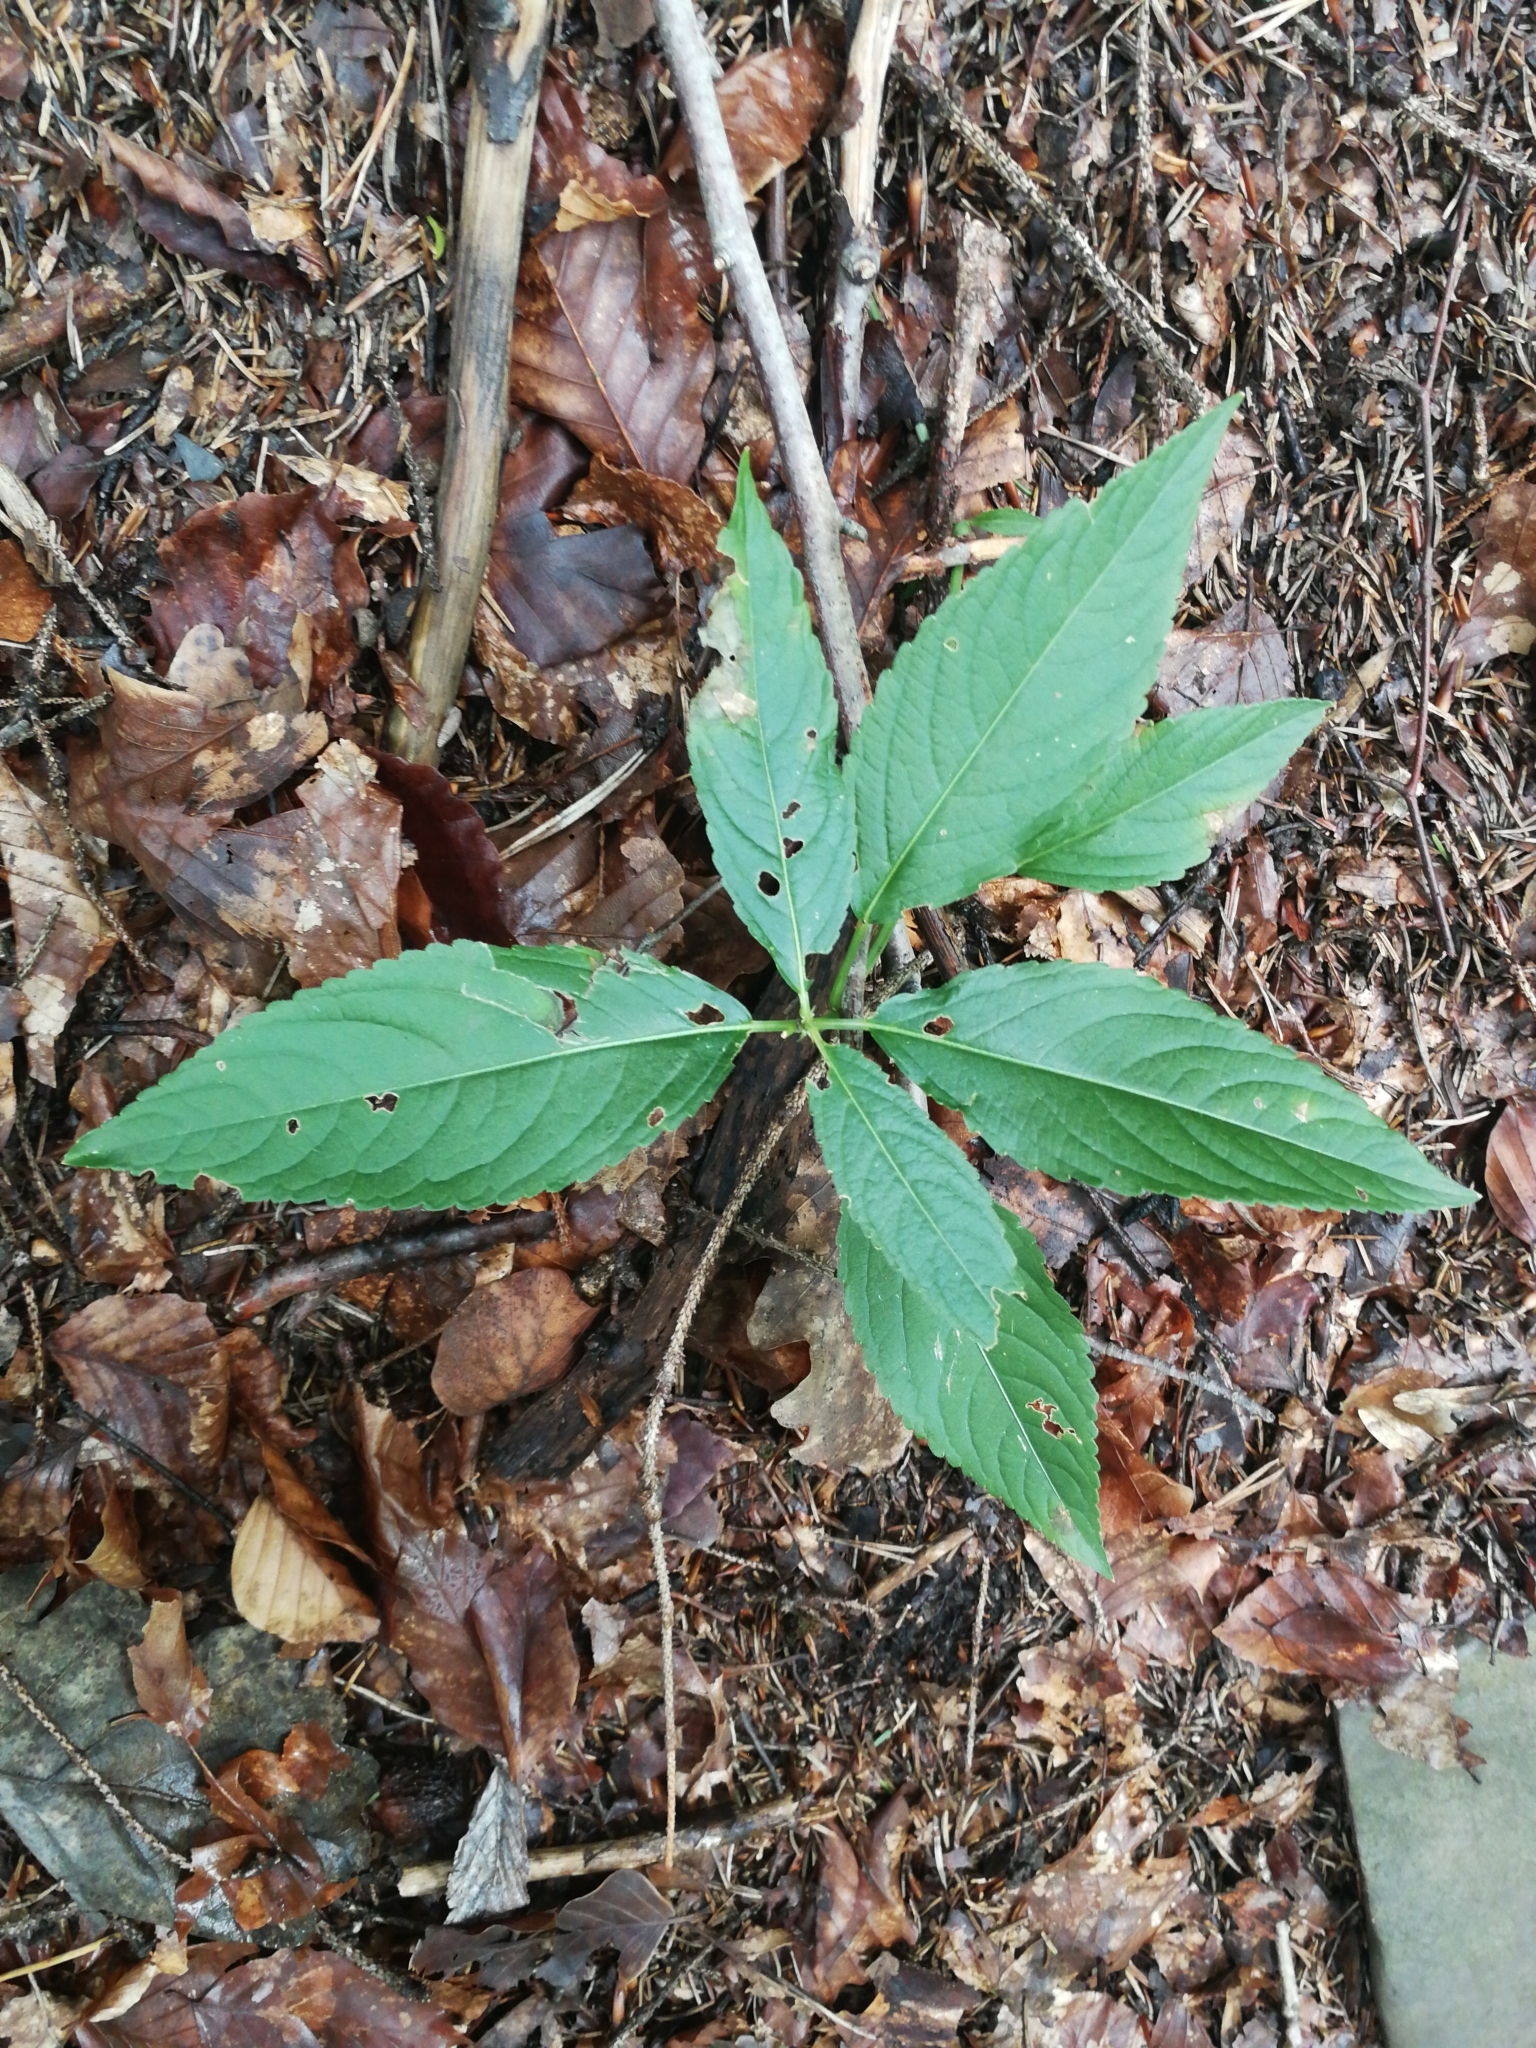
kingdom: Plantae
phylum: Tracheophyta
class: Magnoliopsida
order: Malpighiales
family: Euphorbiaceae
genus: Mercurialis
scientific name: Mercurialis perennis
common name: Dog mercury
